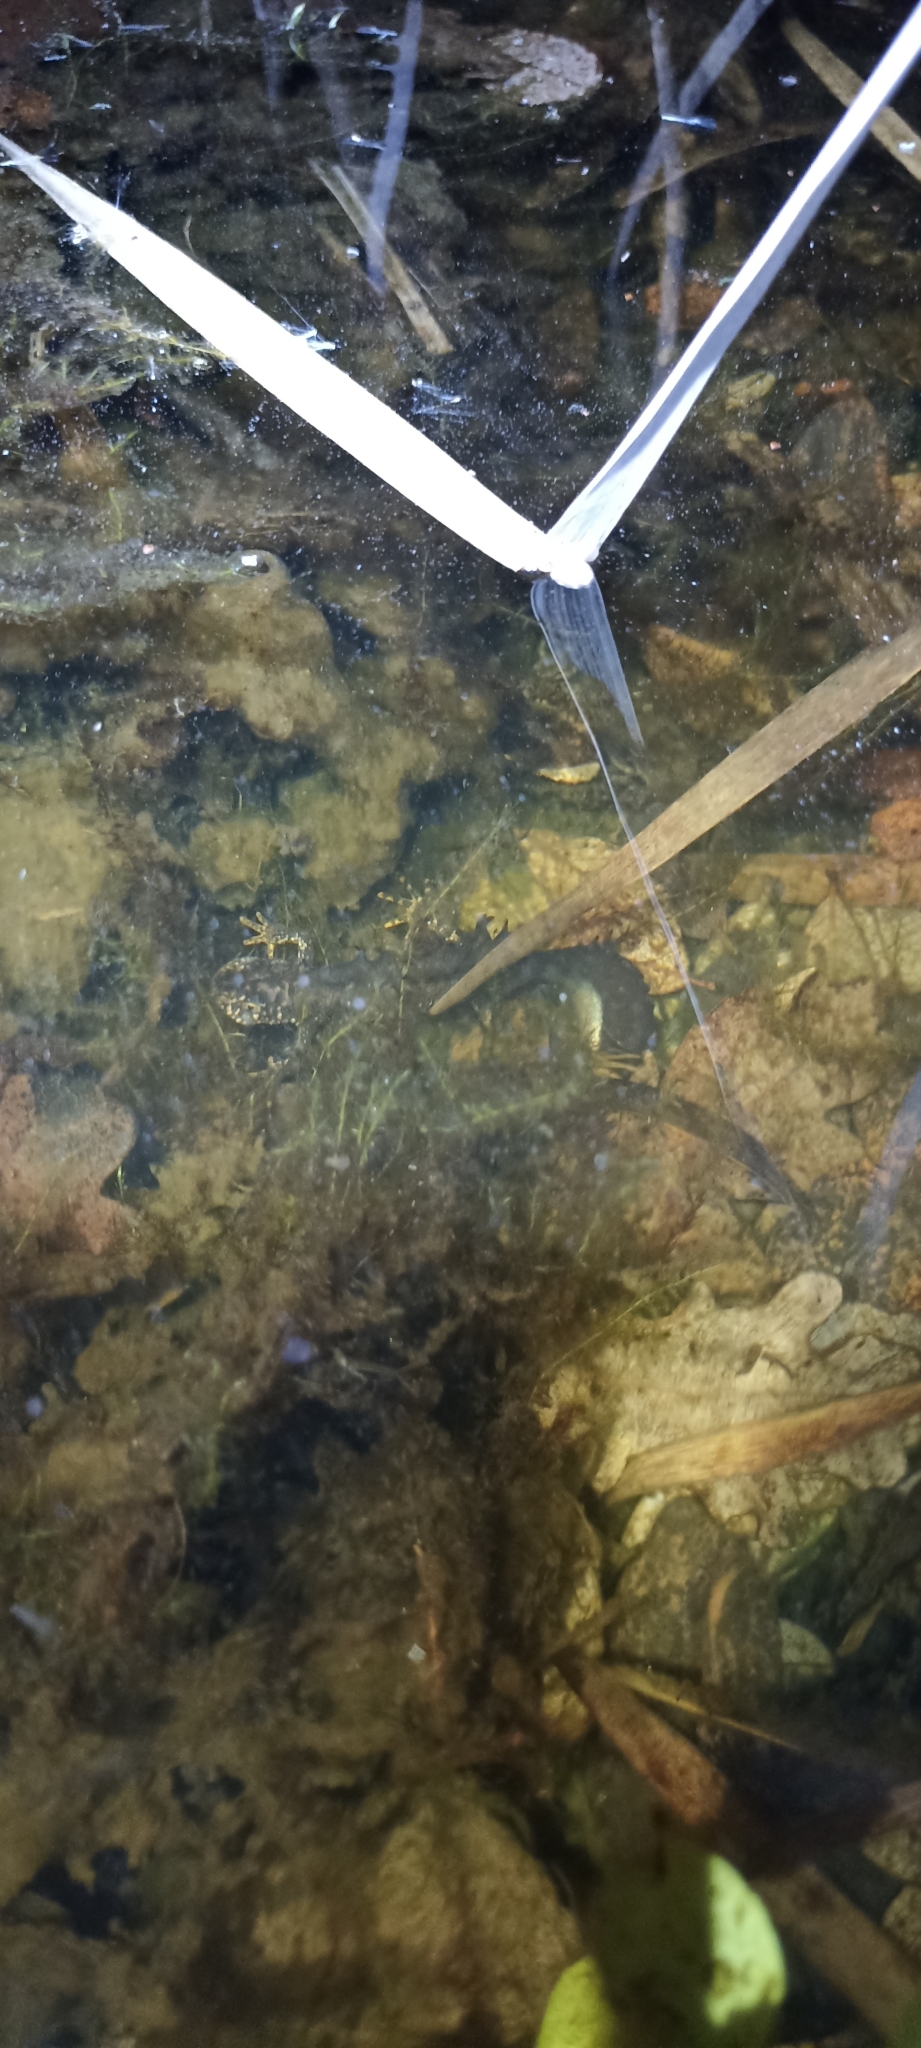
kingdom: Animalia
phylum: Chordata
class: Amphibia
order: Caudata
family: Salamandridae
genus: Triturus
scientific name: Triturus cristatus
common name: Crested newt
